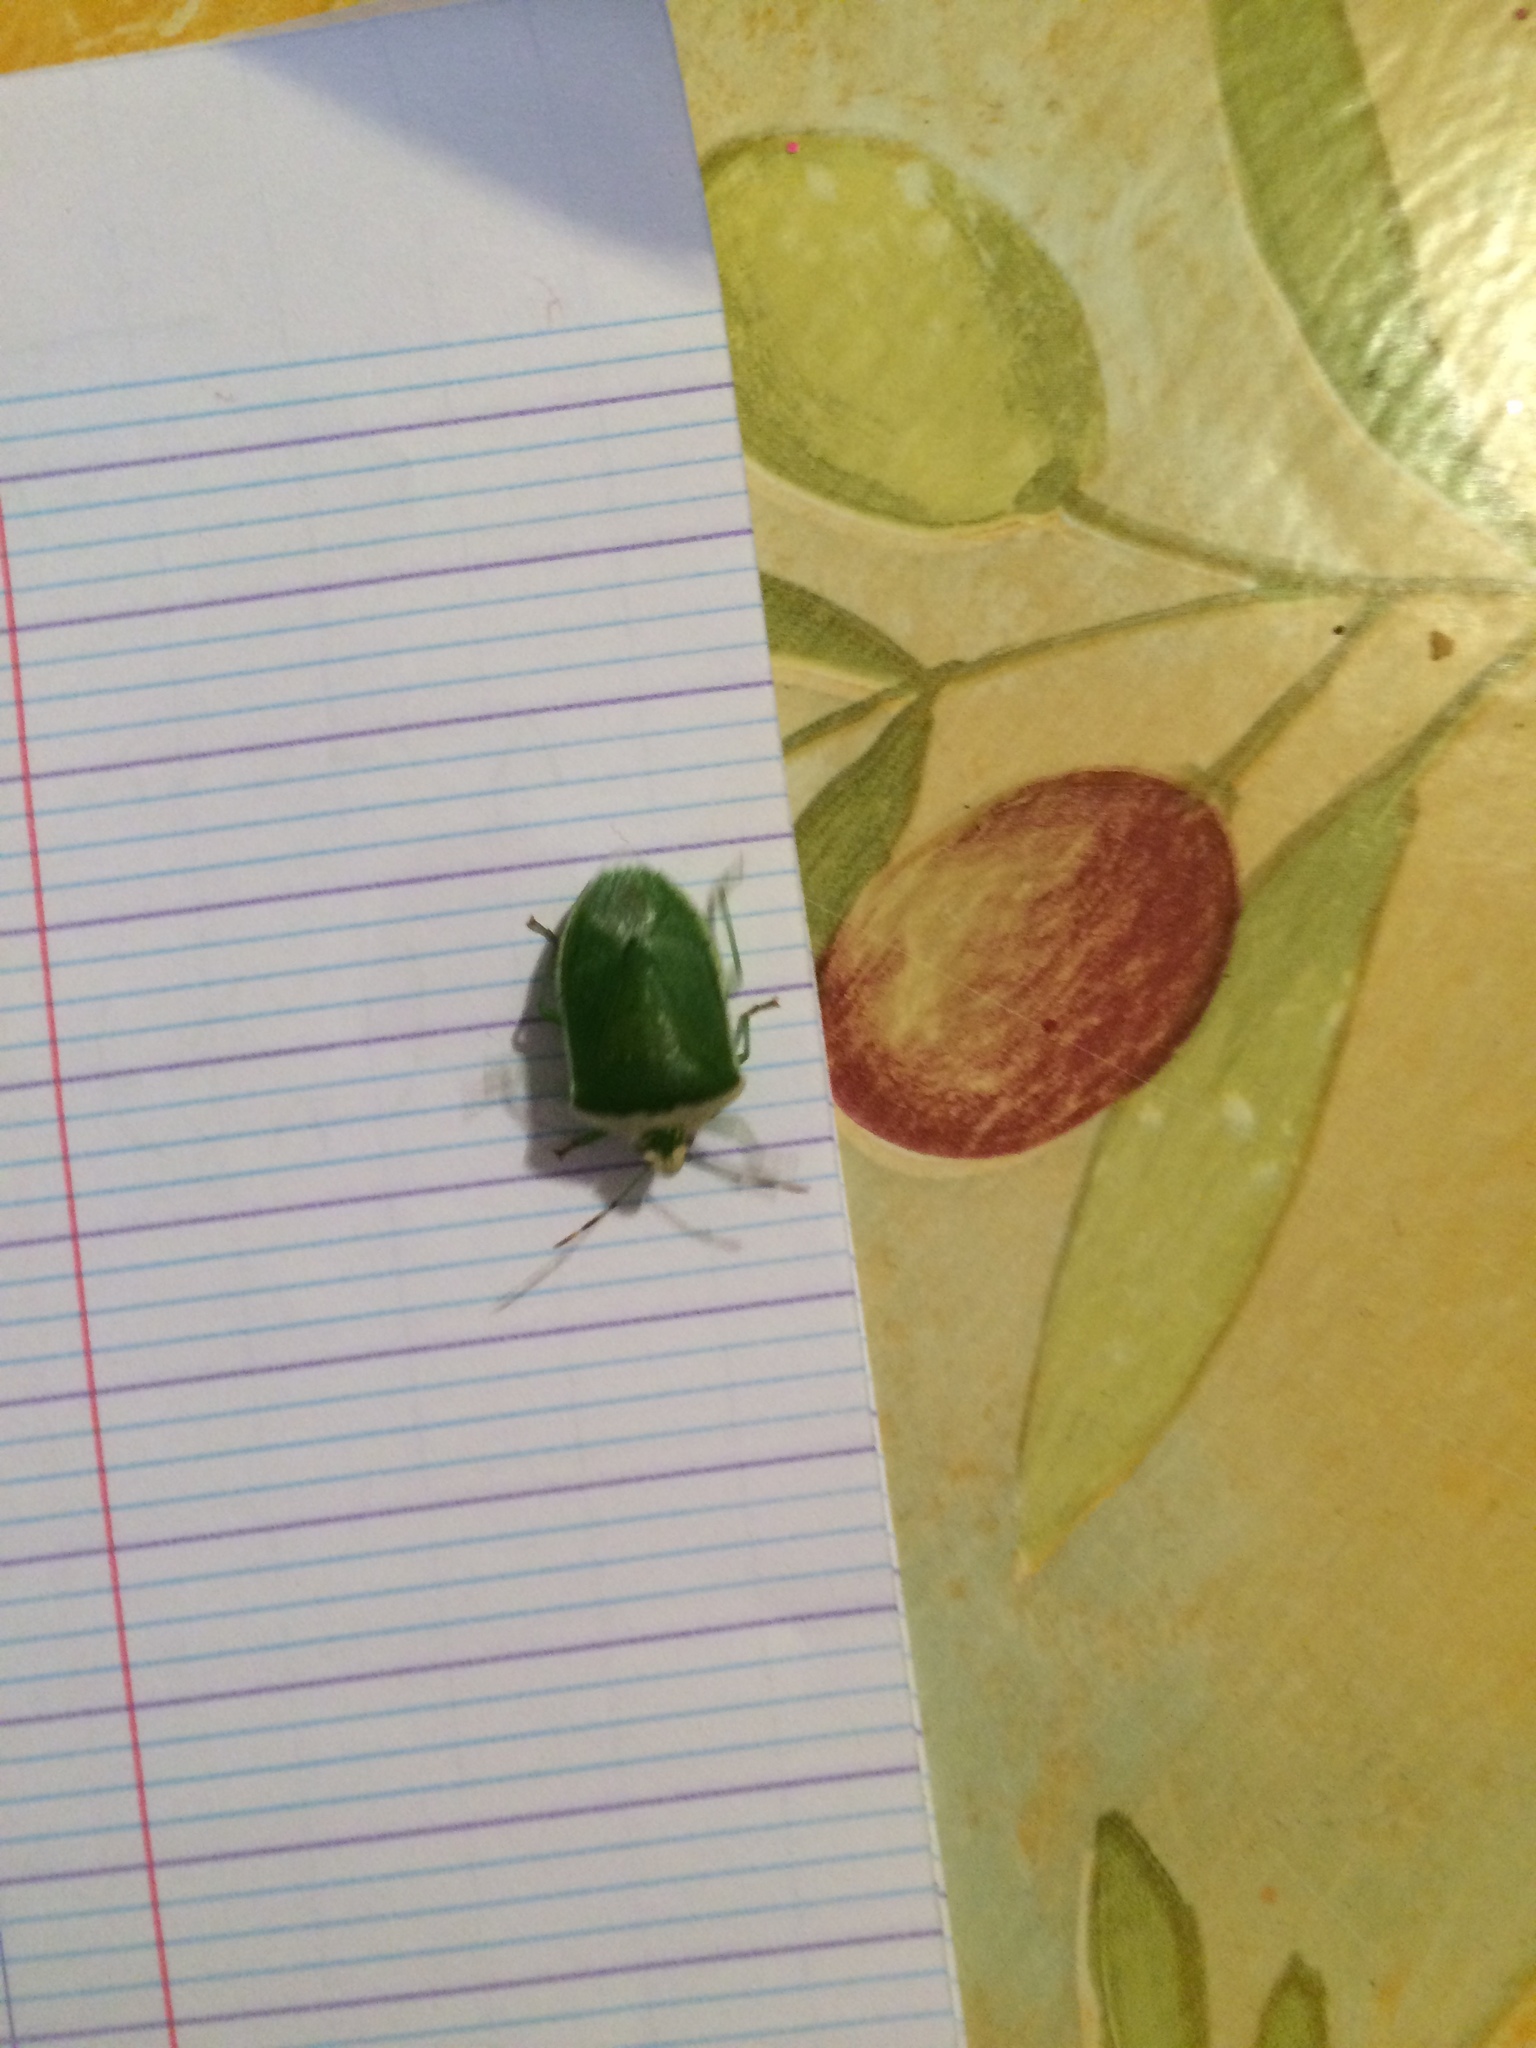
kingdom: Animalia
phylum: Arthropoda
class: Insecta
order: Hemiptera
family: Pentatomidae
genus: Nezara
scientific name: Nezara viridula
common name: Southern green stink bug
